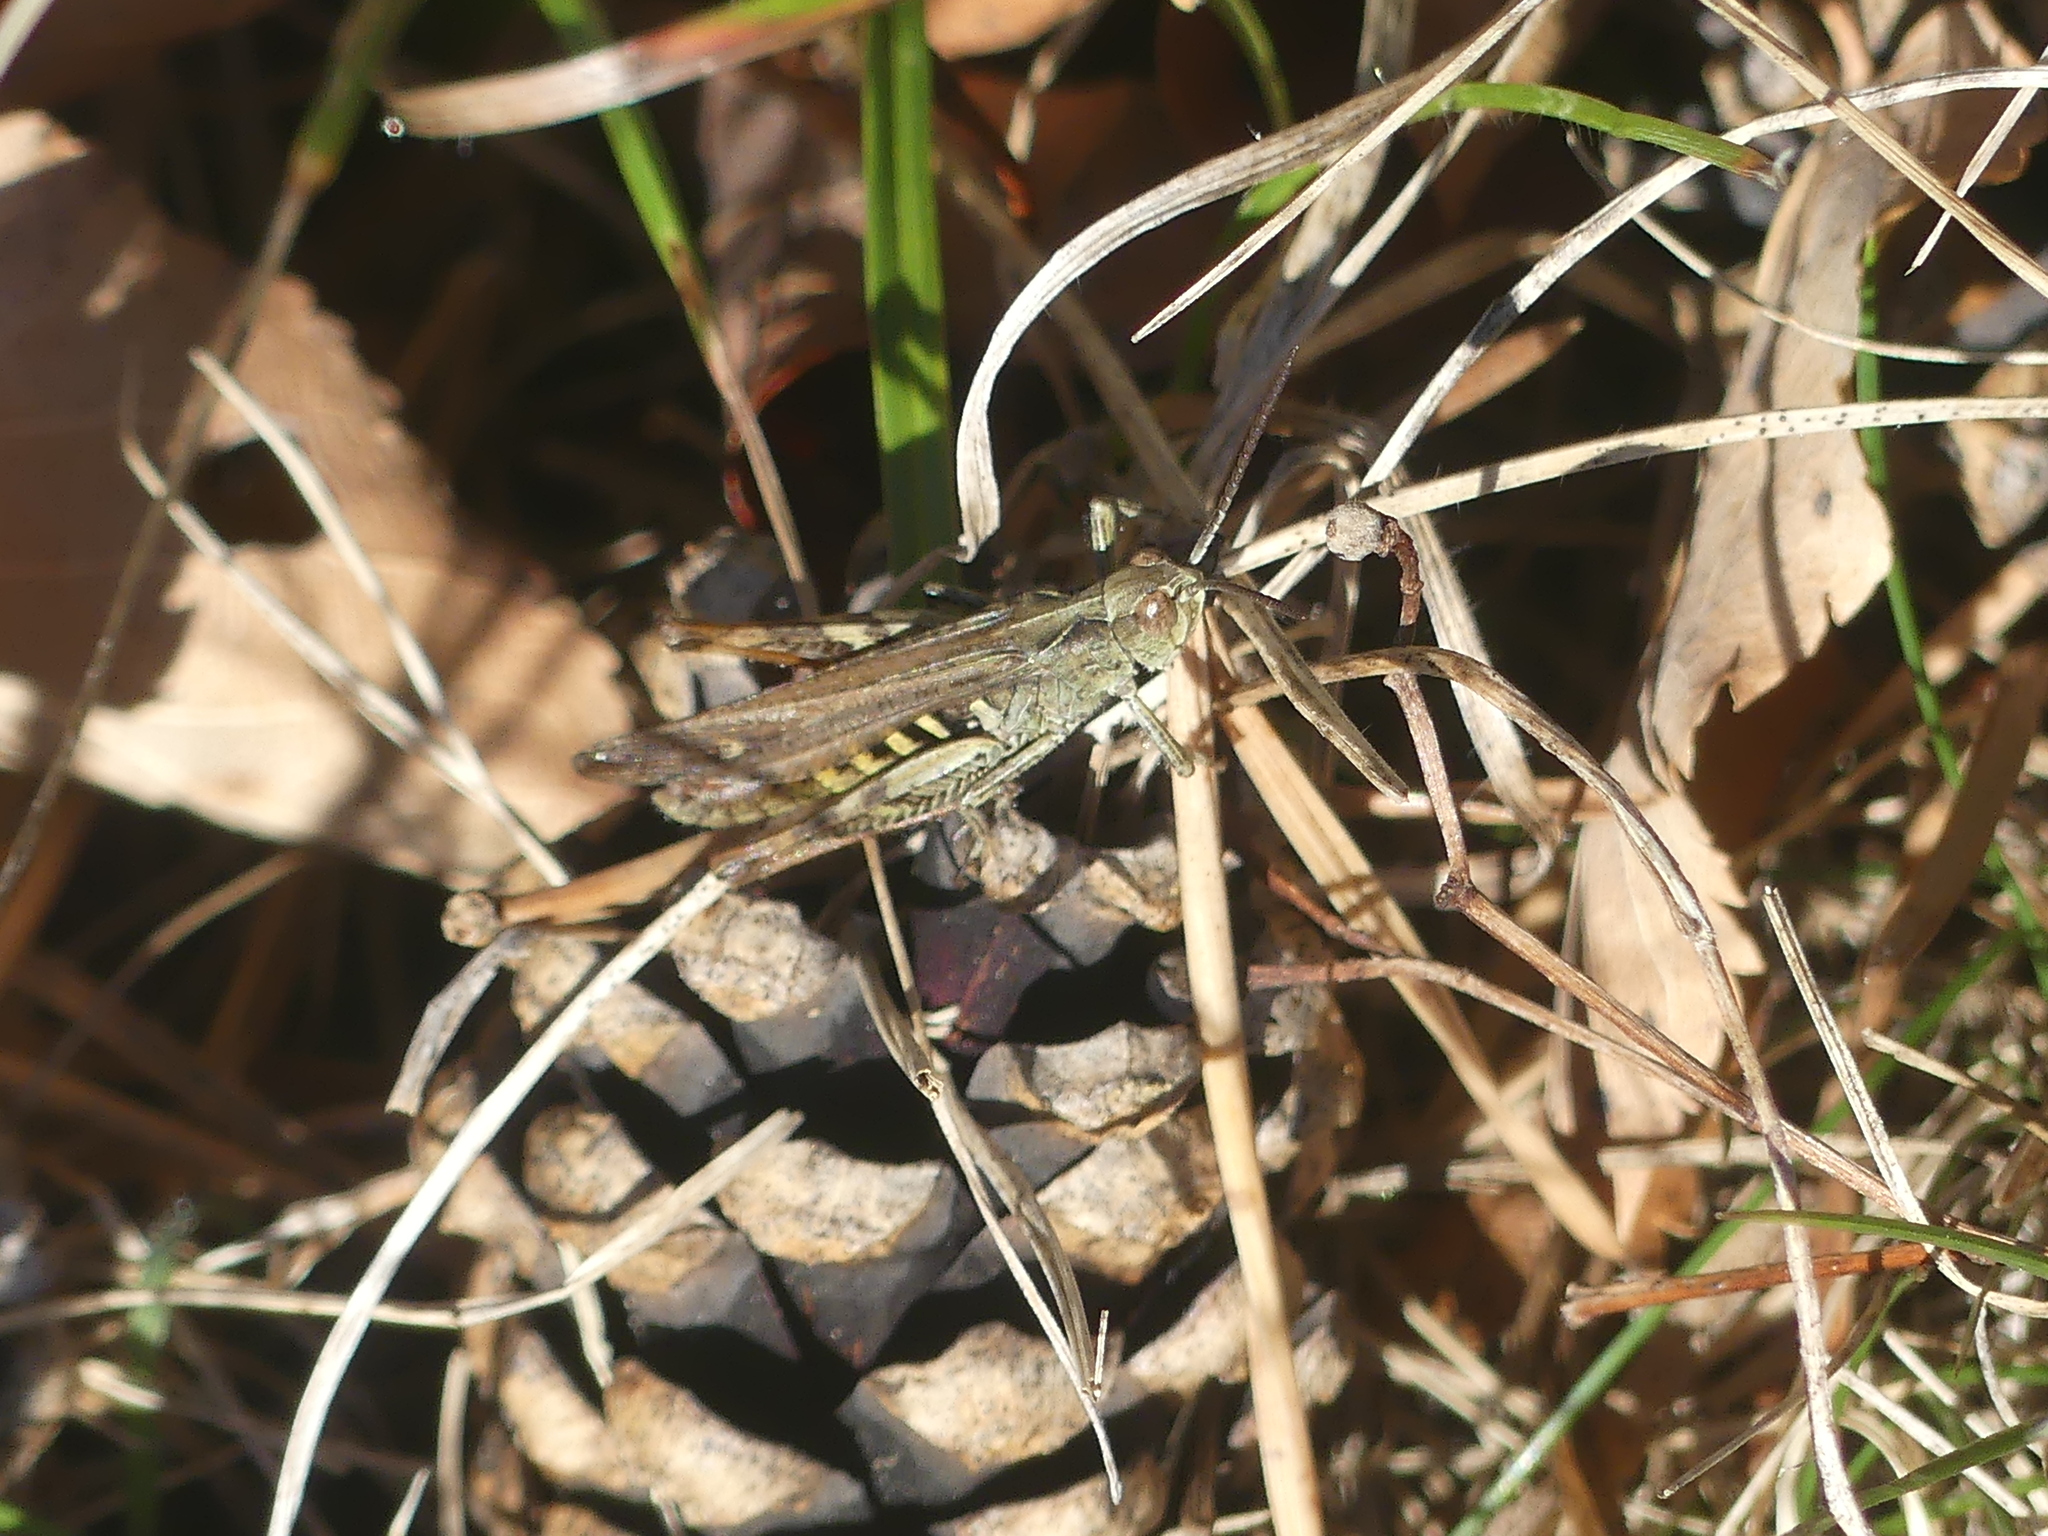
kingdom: Animalia
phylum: Arthropoda
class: Insecta
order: Orthoptera
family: Acrididae
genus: Chorthippus
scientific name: Chorthippus biguttulus
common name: Bow-winged grasshopper
